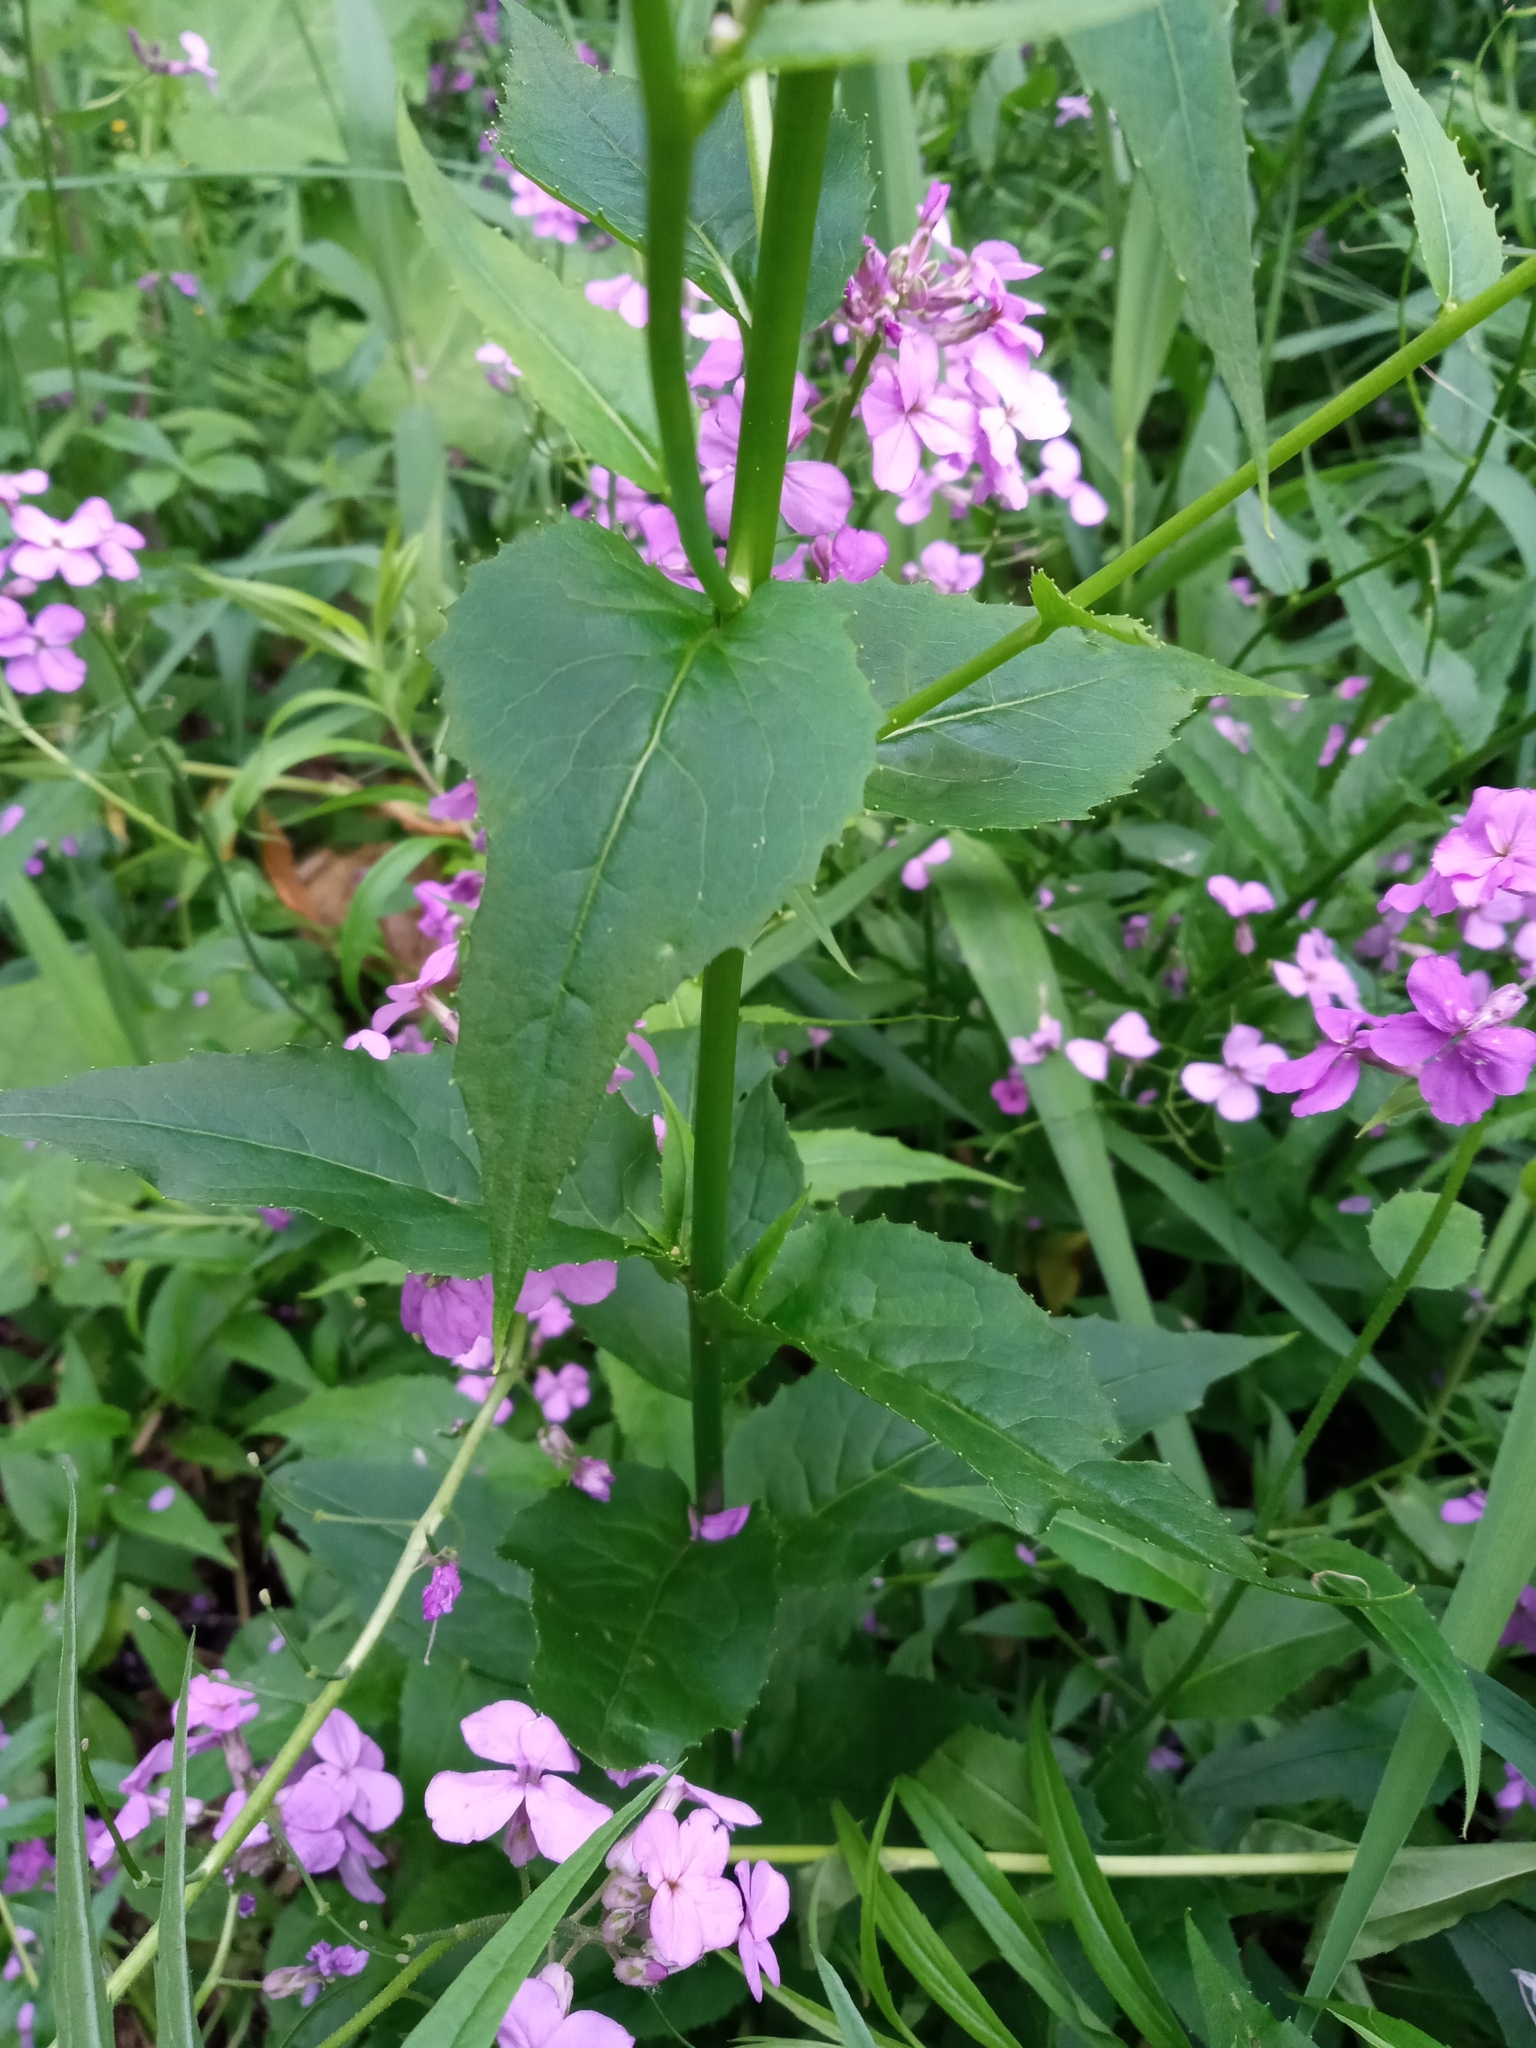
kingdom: Plantae
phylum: Tracheophyta
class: Magnoliopsida
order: Brassicales
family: Brassicaceae
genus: Hesperis
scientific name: Hesperis matronalis
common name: Dame's-violet
